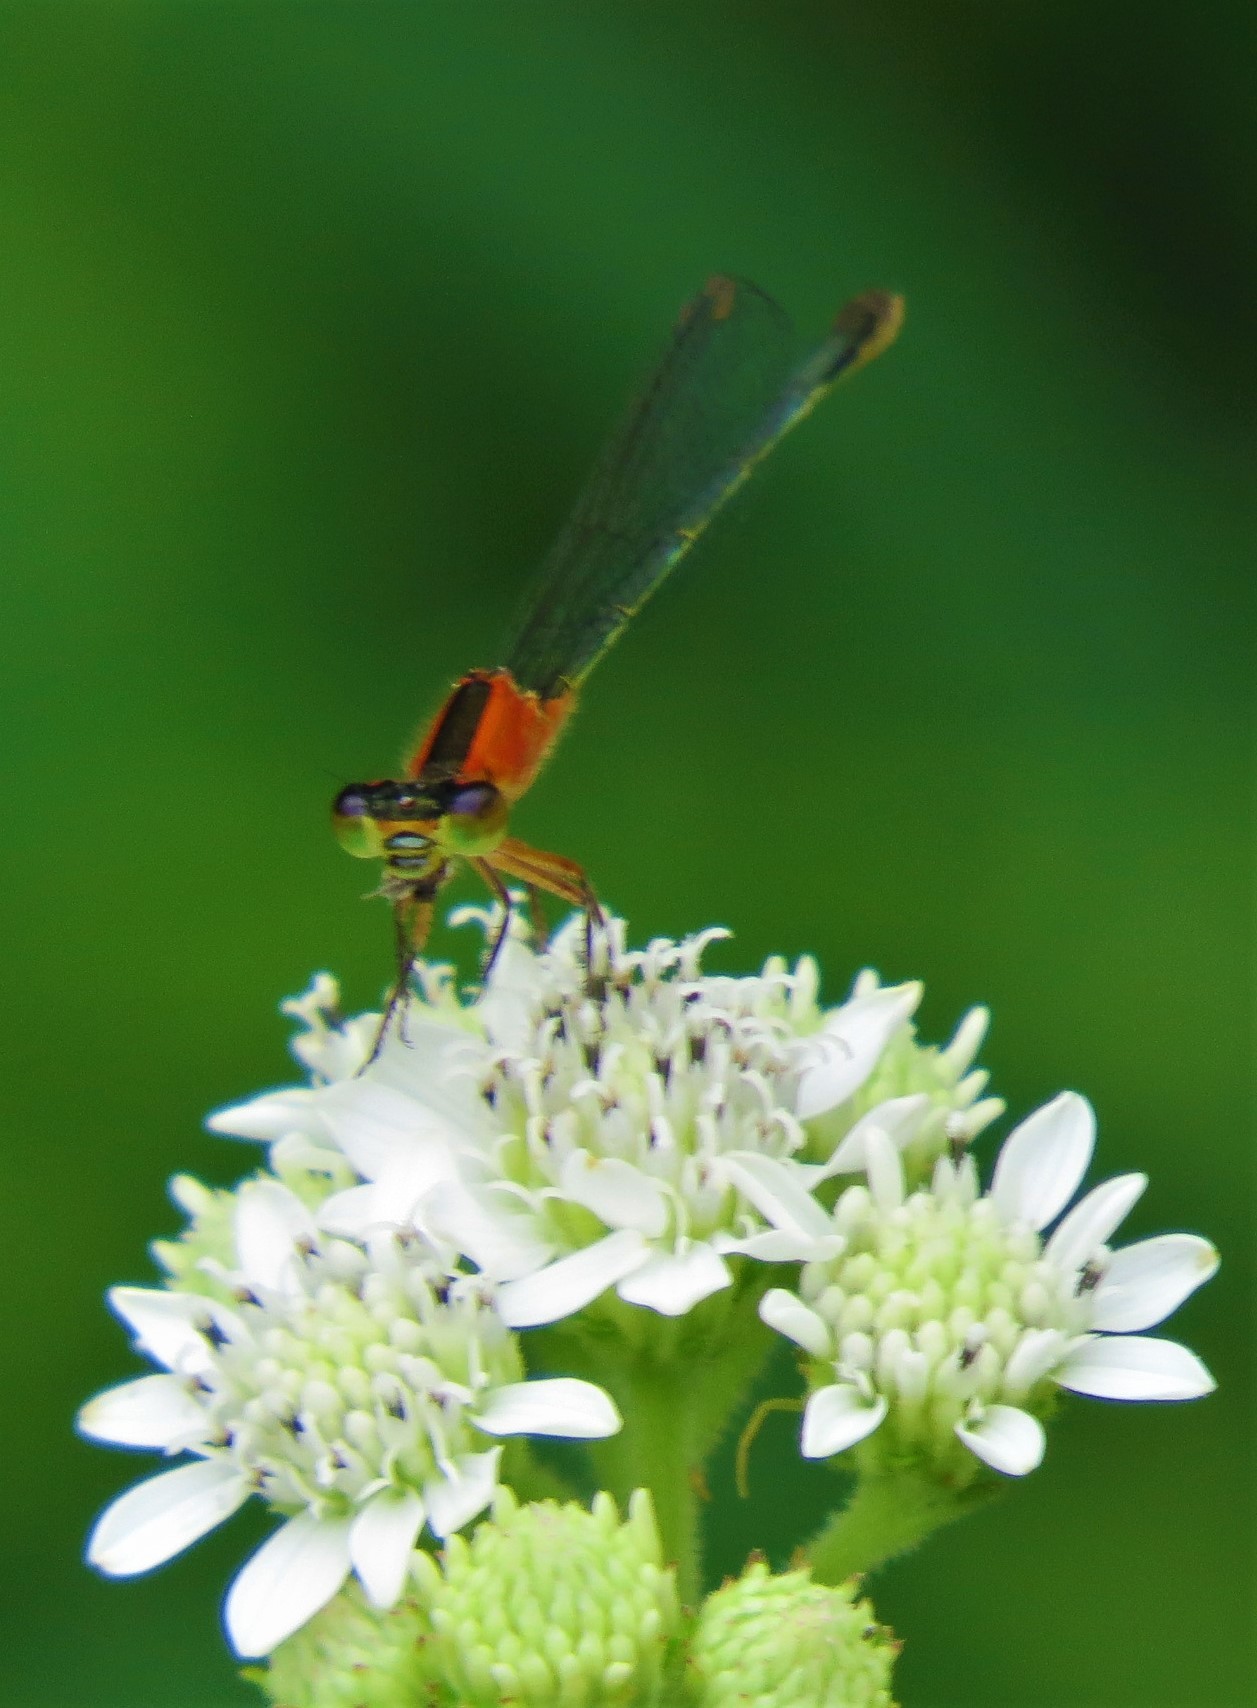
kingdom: Animalia
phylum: Arthropoda
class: Insecta
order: Odonata
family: Coenagrionidae
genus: Ischnura
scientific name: Ischnura ramburii
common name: Rambur's forktail
